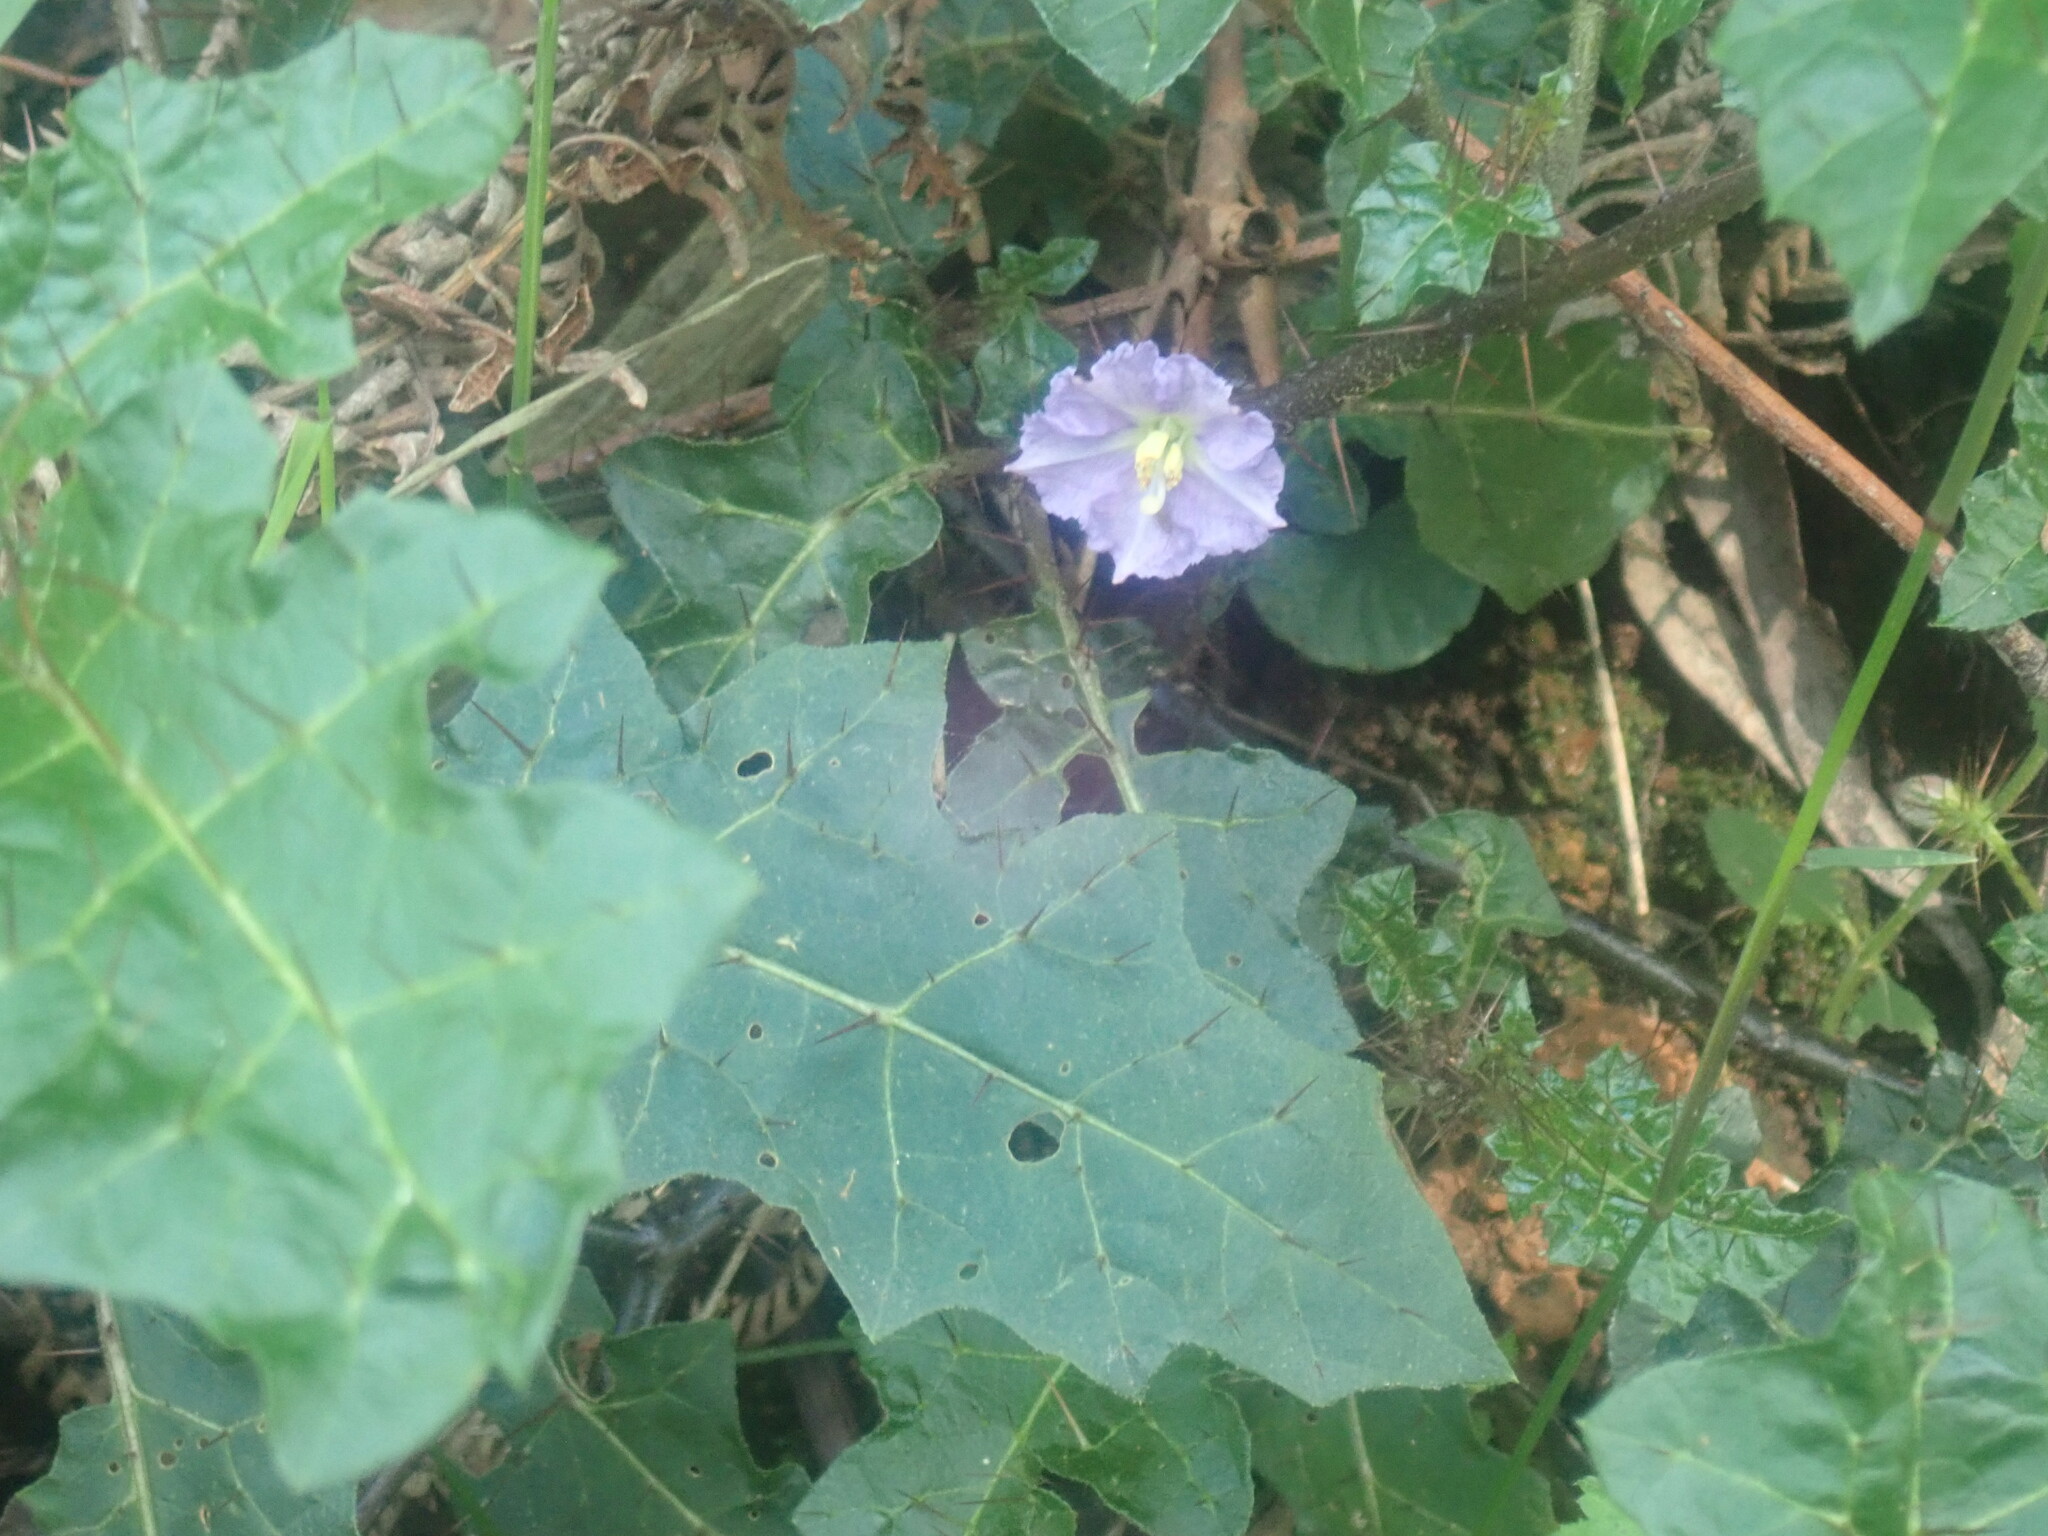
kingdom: Plantae
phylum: Tracheophyta
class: Magnoliopsida
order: Solanales
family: Solanaceae
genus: Solanum
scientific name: Solanum prinophyllum
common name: Forest nightshade
